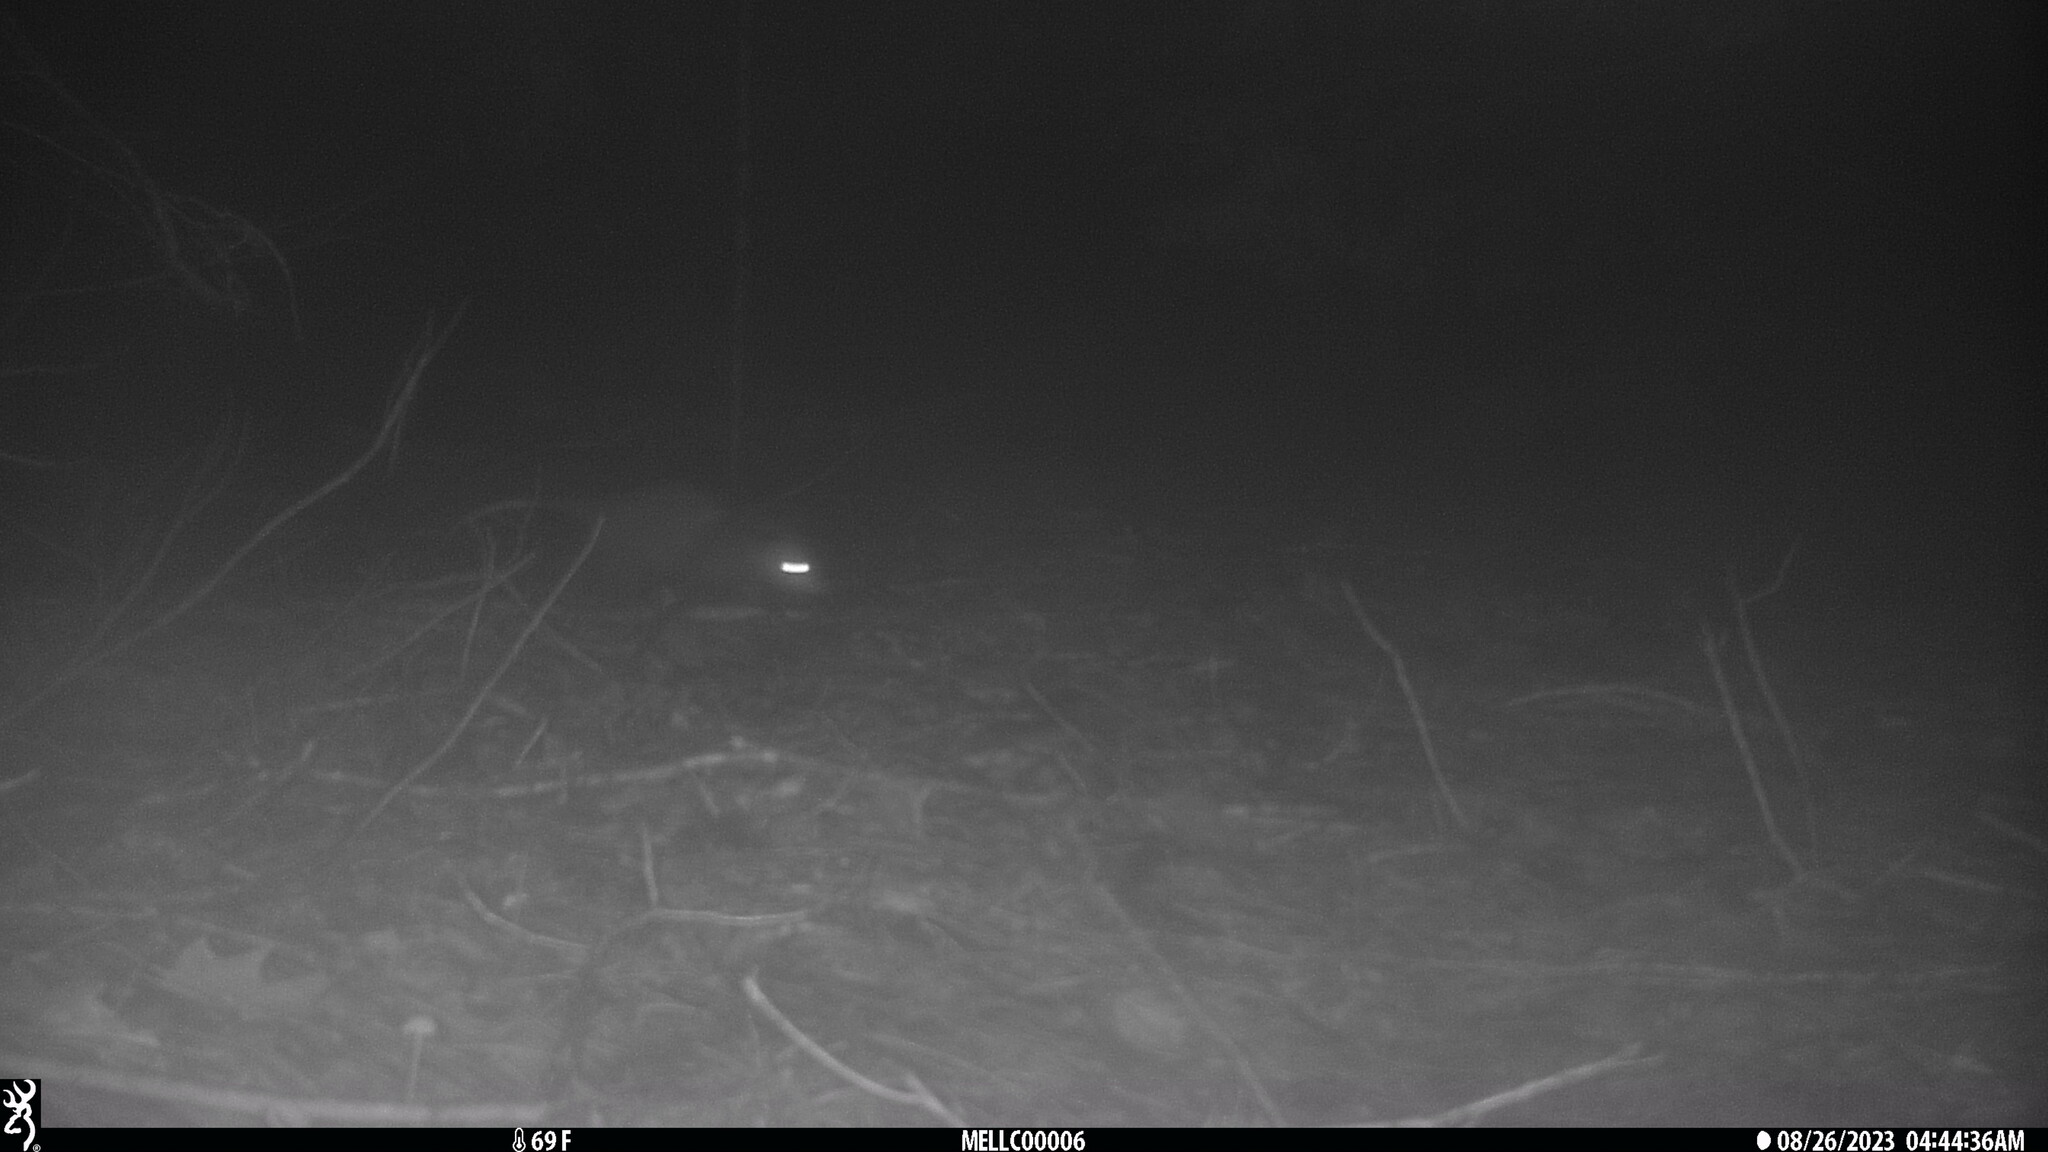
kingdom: Animalia
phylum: Chordata
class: Mammalia
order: Didelphimorphia
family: Didelphidae
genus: Didelphis
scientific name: Didelphis virginiana
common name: Virginia opossum
